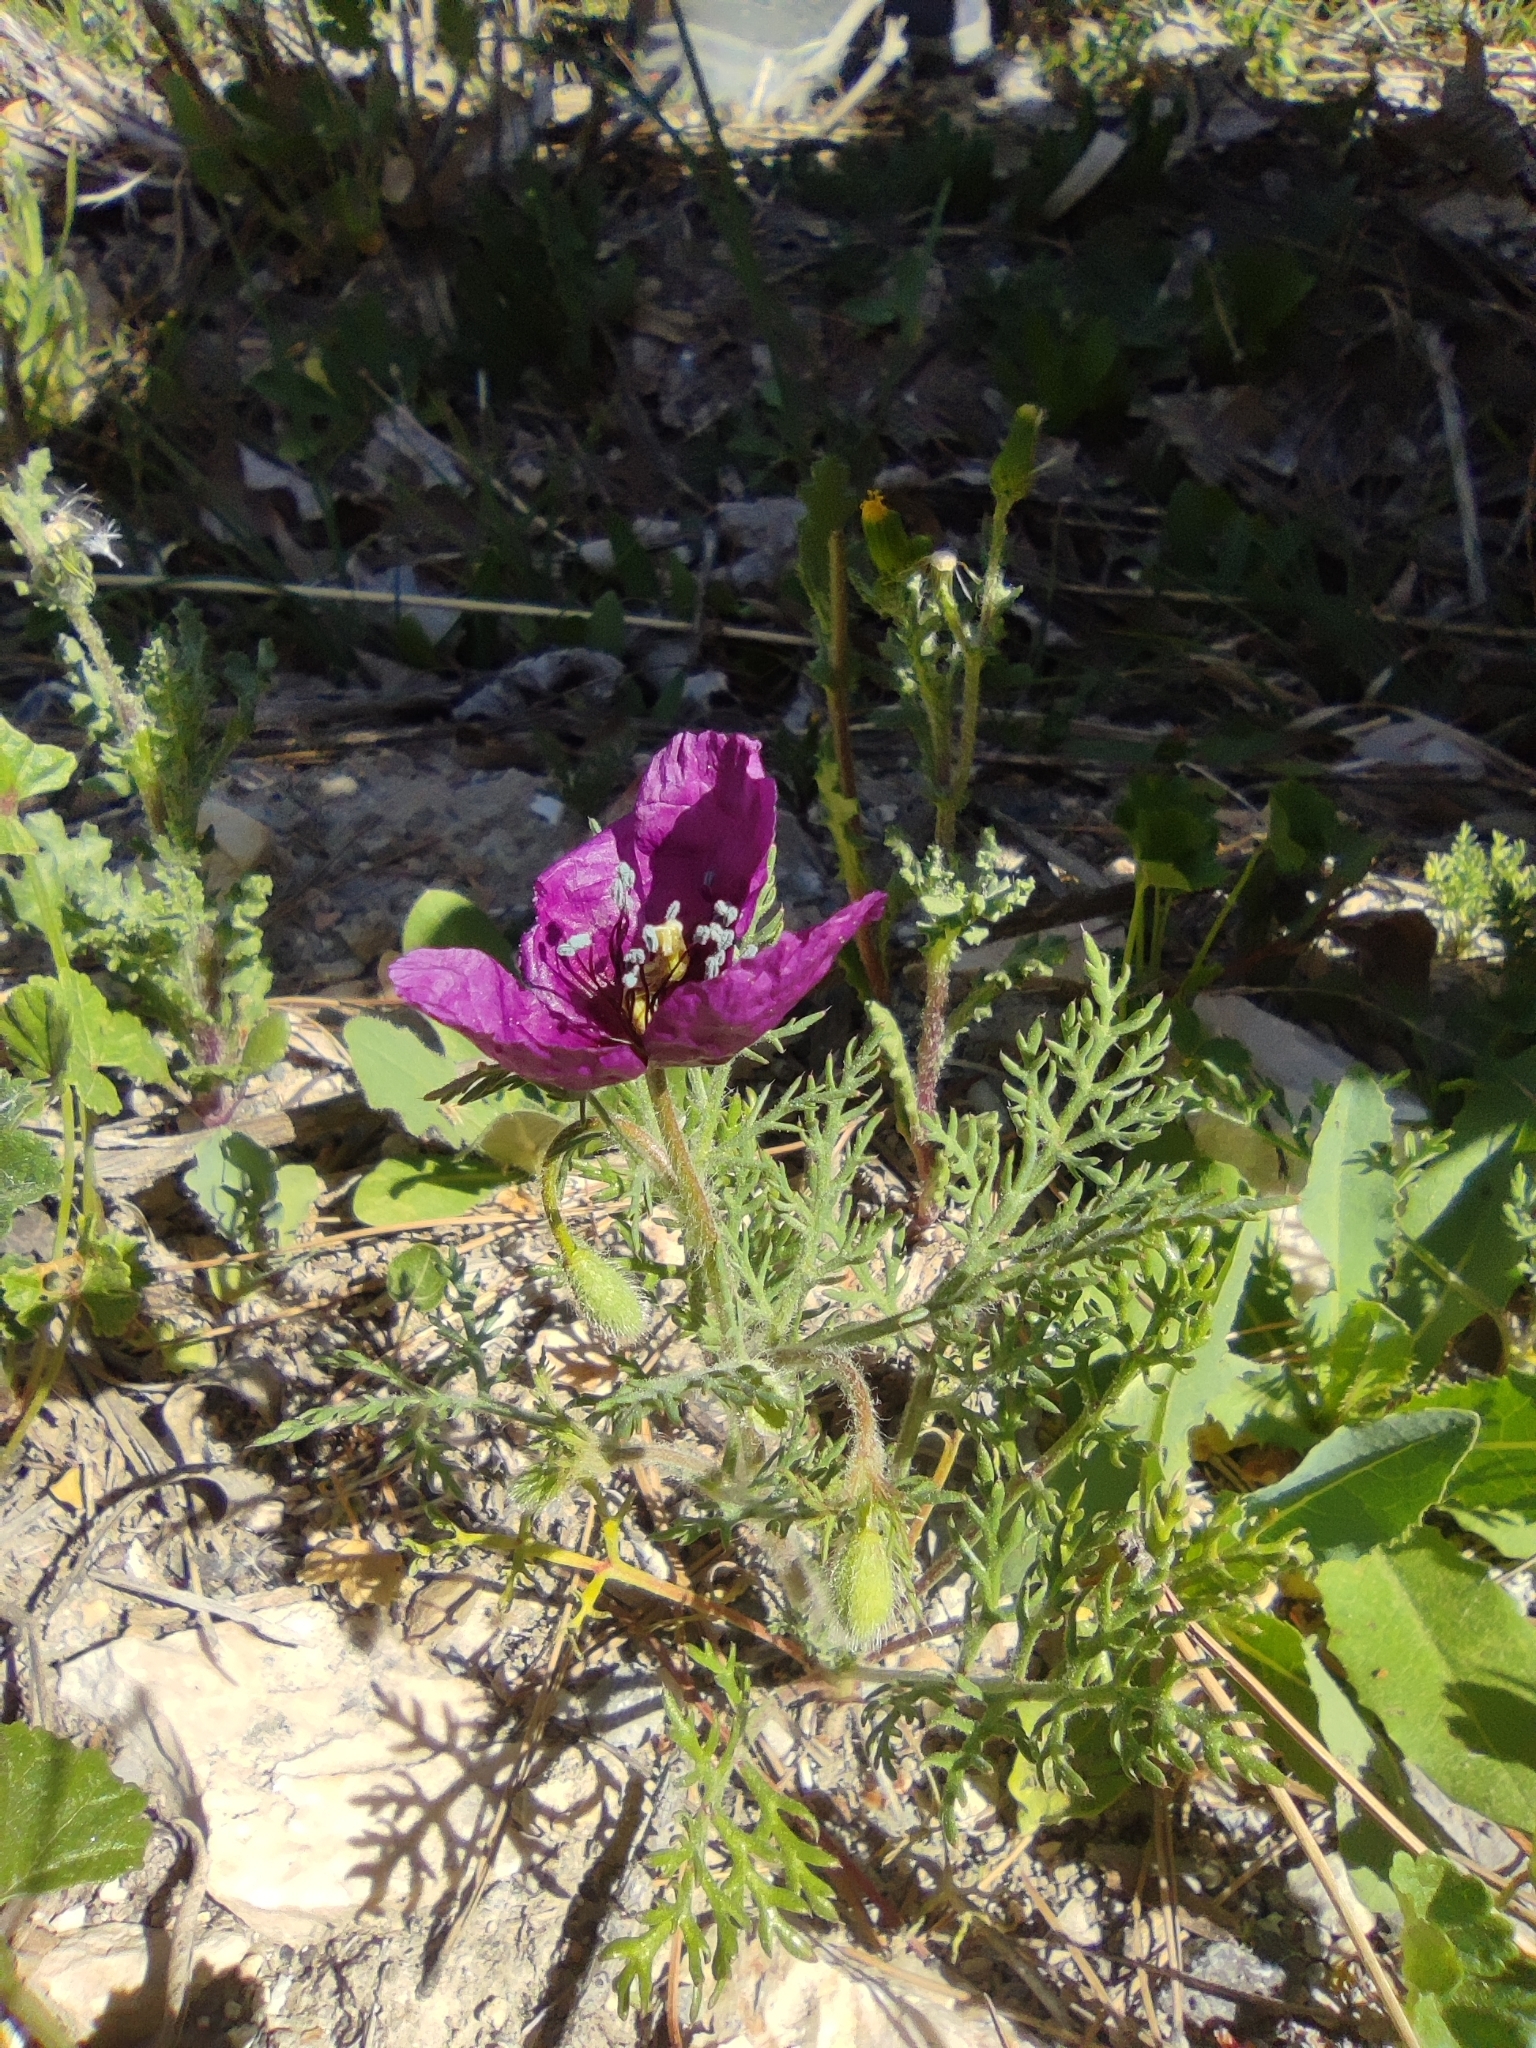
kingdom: Plantae
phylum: Tracheophyta
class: Magnoliopsida
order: Ranunculales
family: Papaveraceae
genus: Roemeria
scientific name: Roemeria hybrida
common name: Violet horned-poppy
